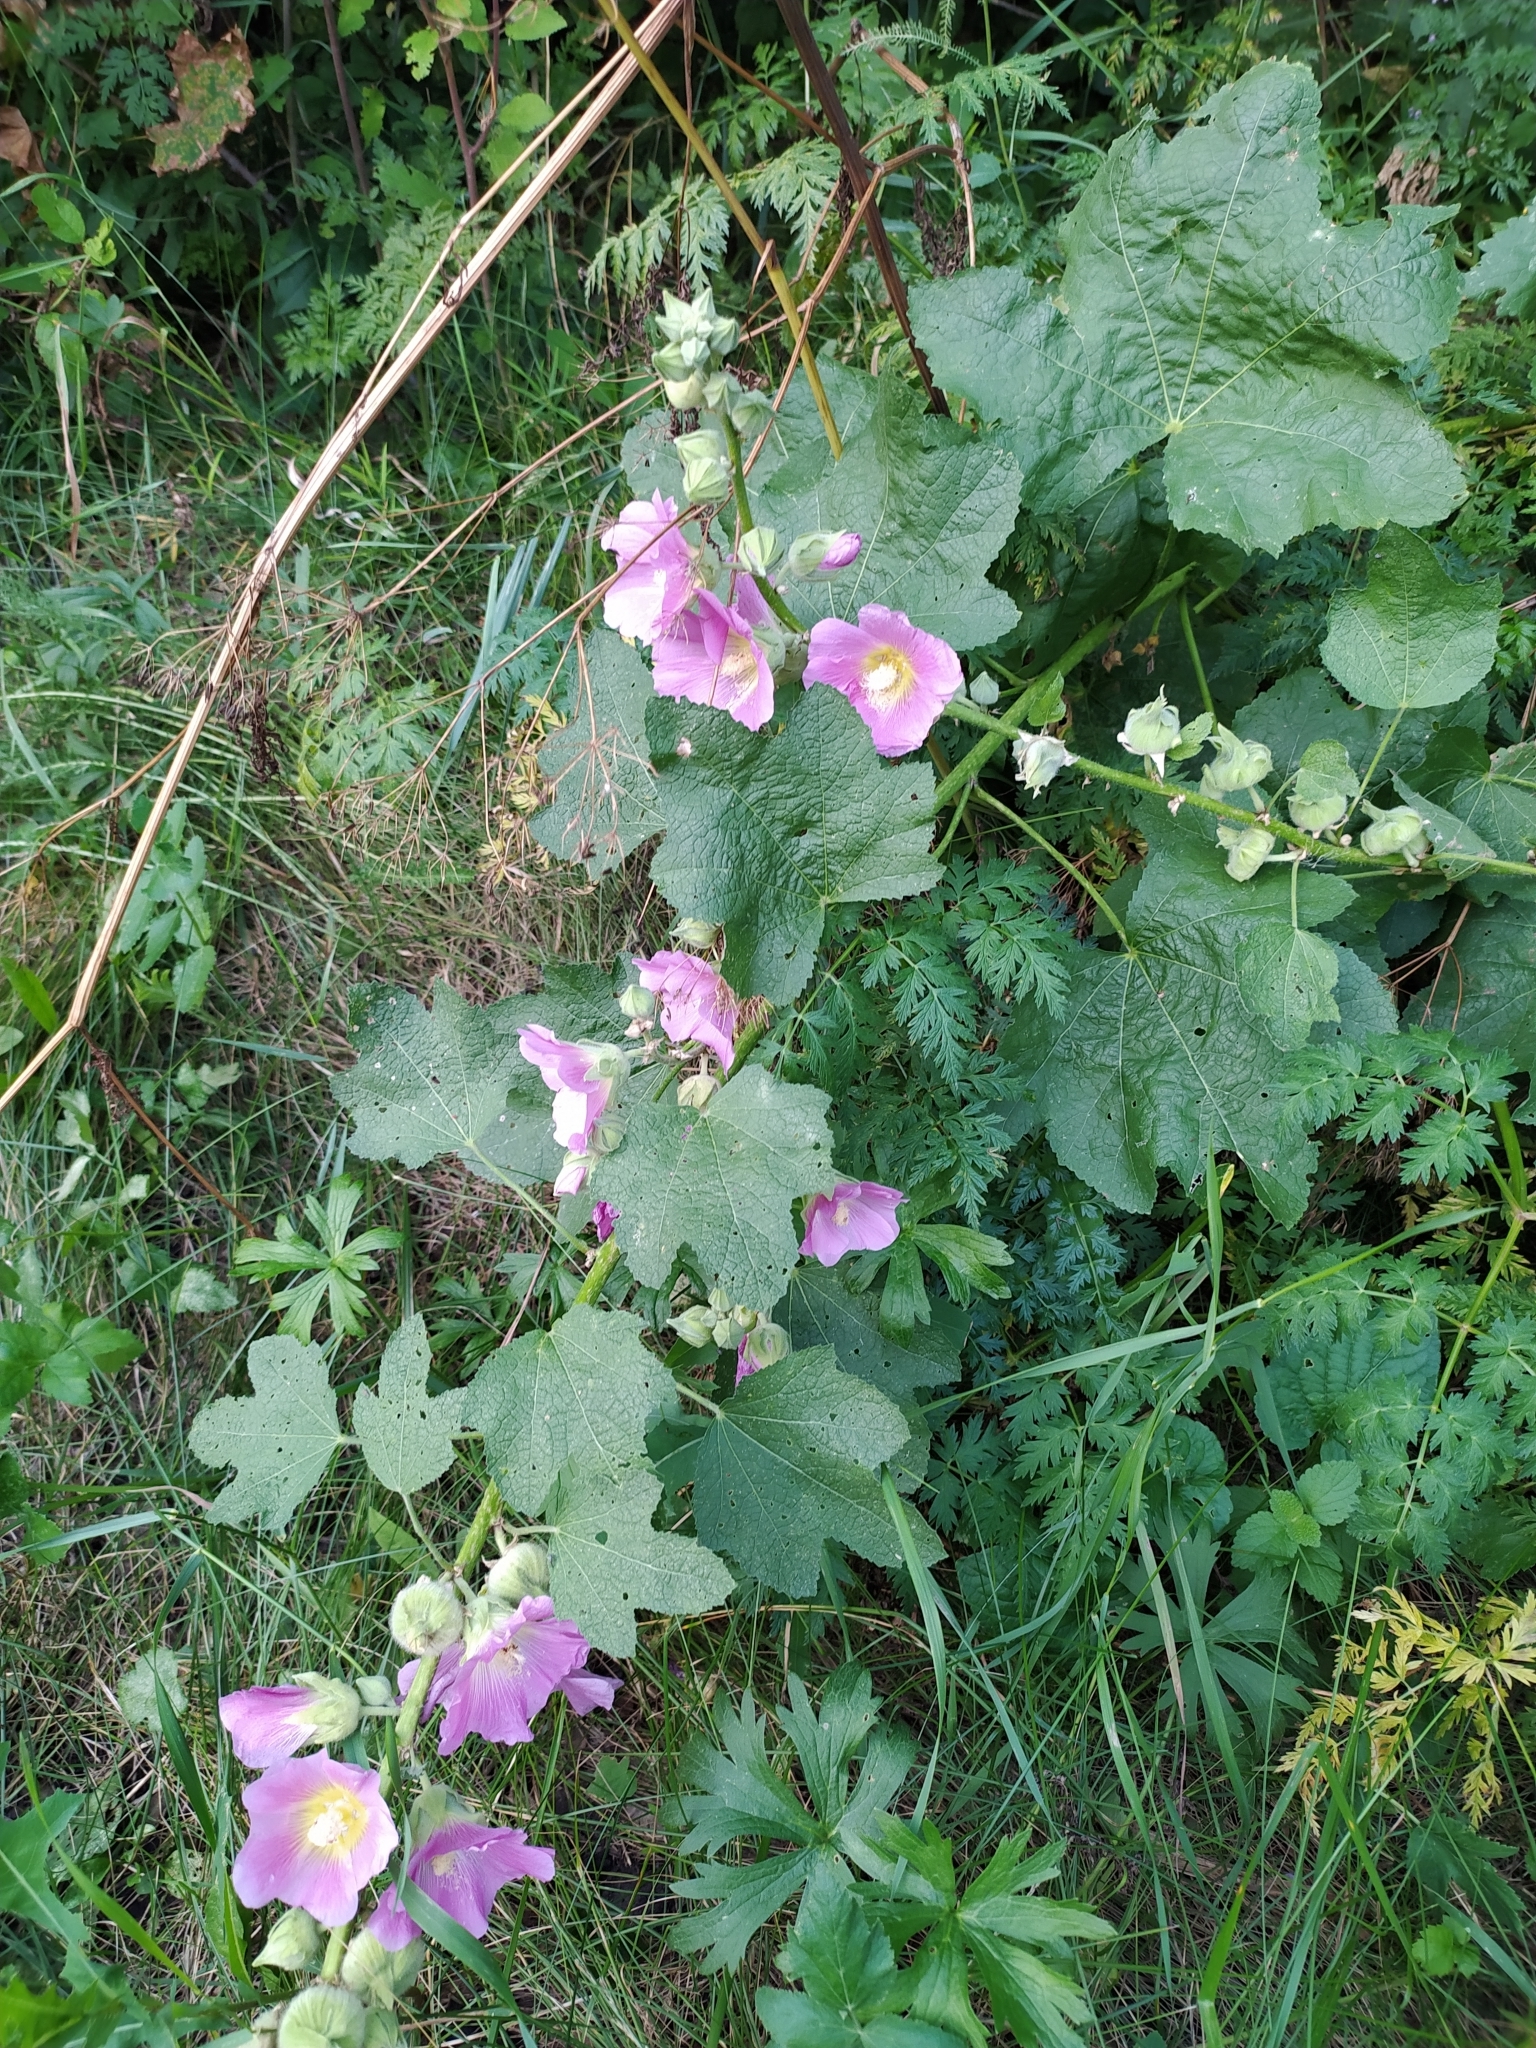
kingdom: Plantae
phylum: Tracheophyta
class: Magnoliopsida
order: Malvales
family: Malvaceae
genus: Alcea
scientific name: Alcea rosea
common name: Hollyhock
